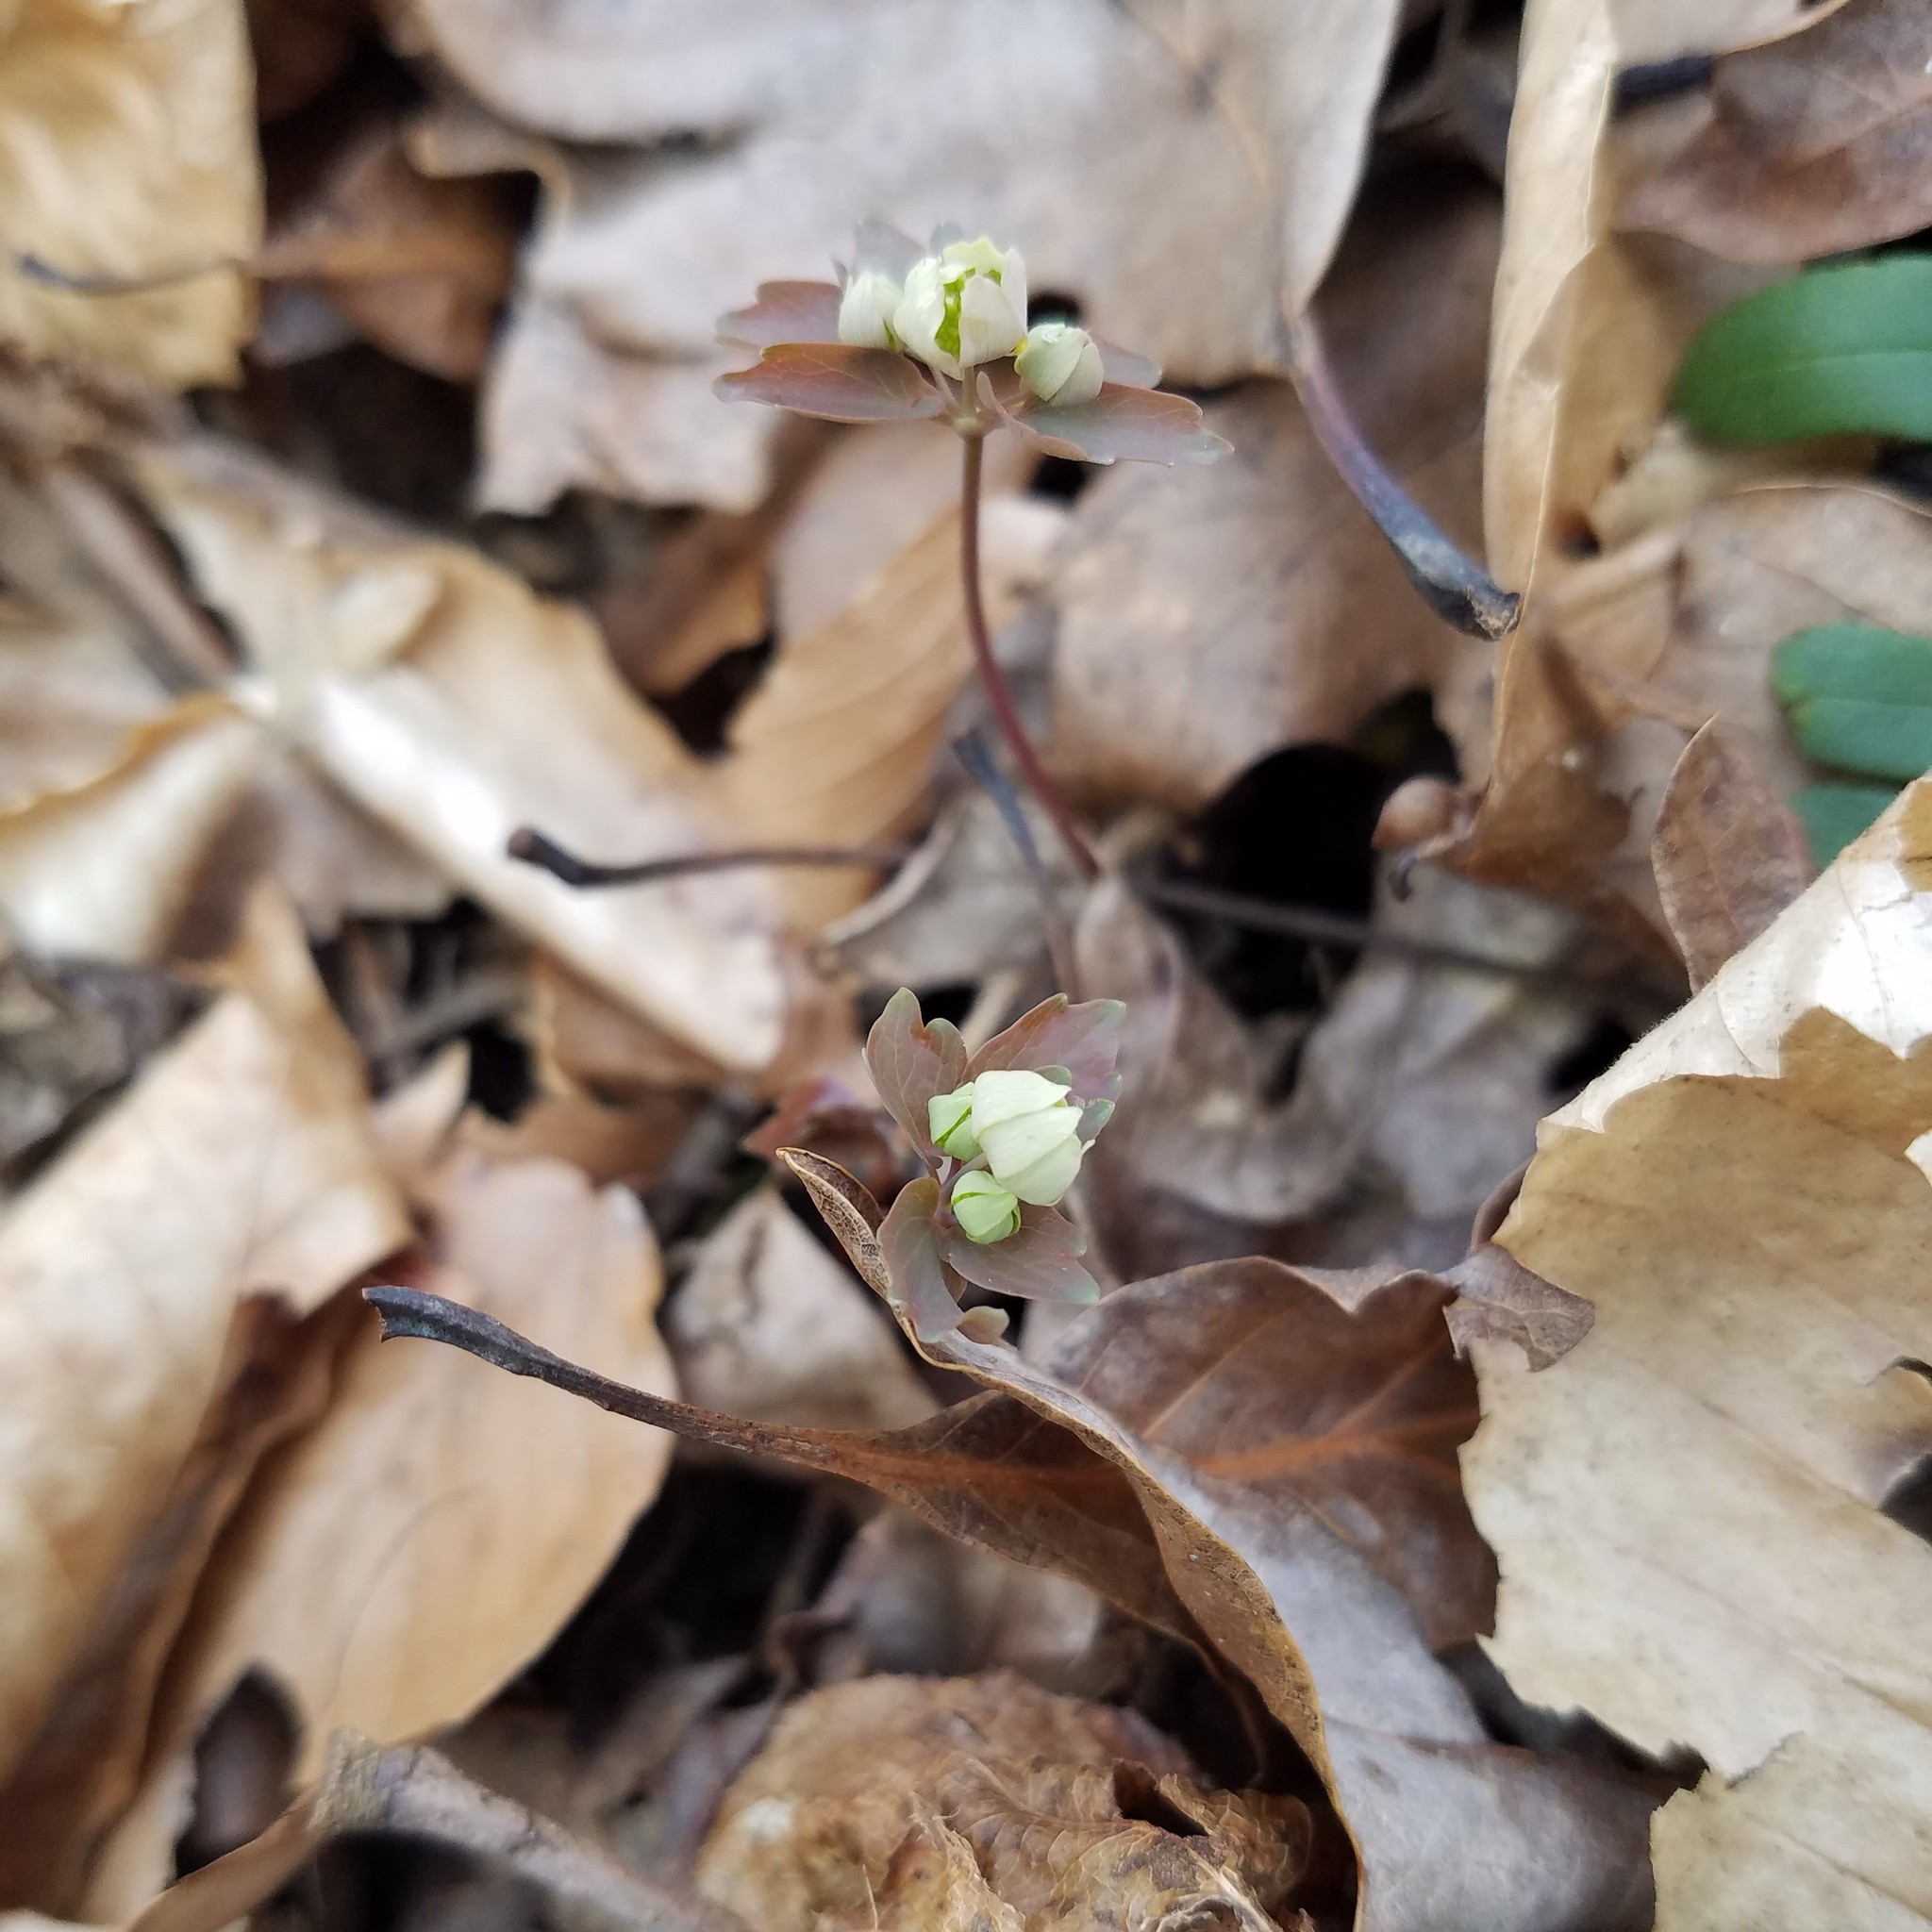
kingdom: Plantae
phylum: Tracheophyta
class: Magnoliopsida
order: Ranunculales
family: Ranunculaceae
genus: Thalictrum
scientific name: Thalictrum thalictroides
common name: Rue-anemone
